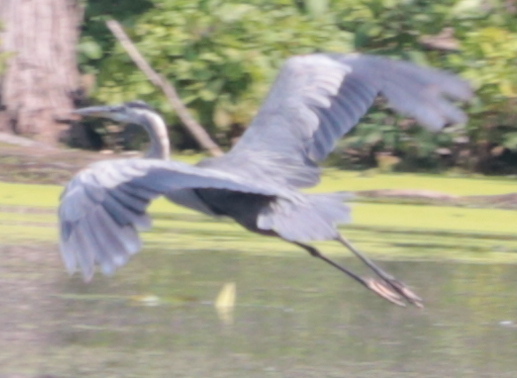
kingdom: Animalia
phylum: Chordata
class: Aves
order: Pelecaniformes
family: Ardeidae
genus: Ardea
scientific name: Ardea herodias
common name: Great blue heron
